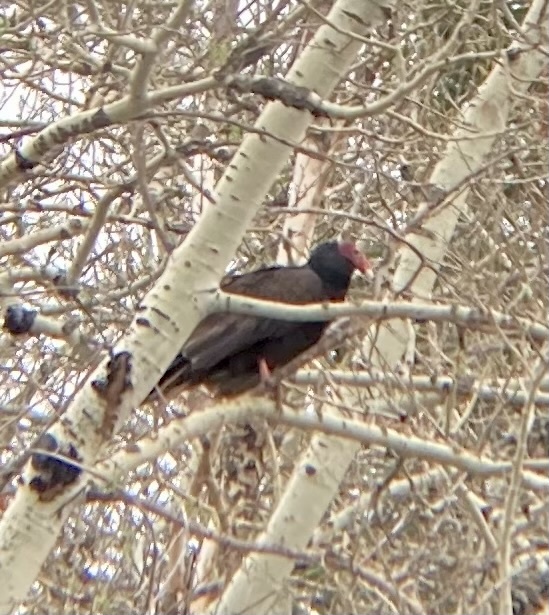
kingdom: Animalia
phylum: Chordata
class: Aves
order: Accipitriformes
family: Cathartidae
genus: Cathartes
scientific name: Cathartes aura
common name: Turkey vulture
